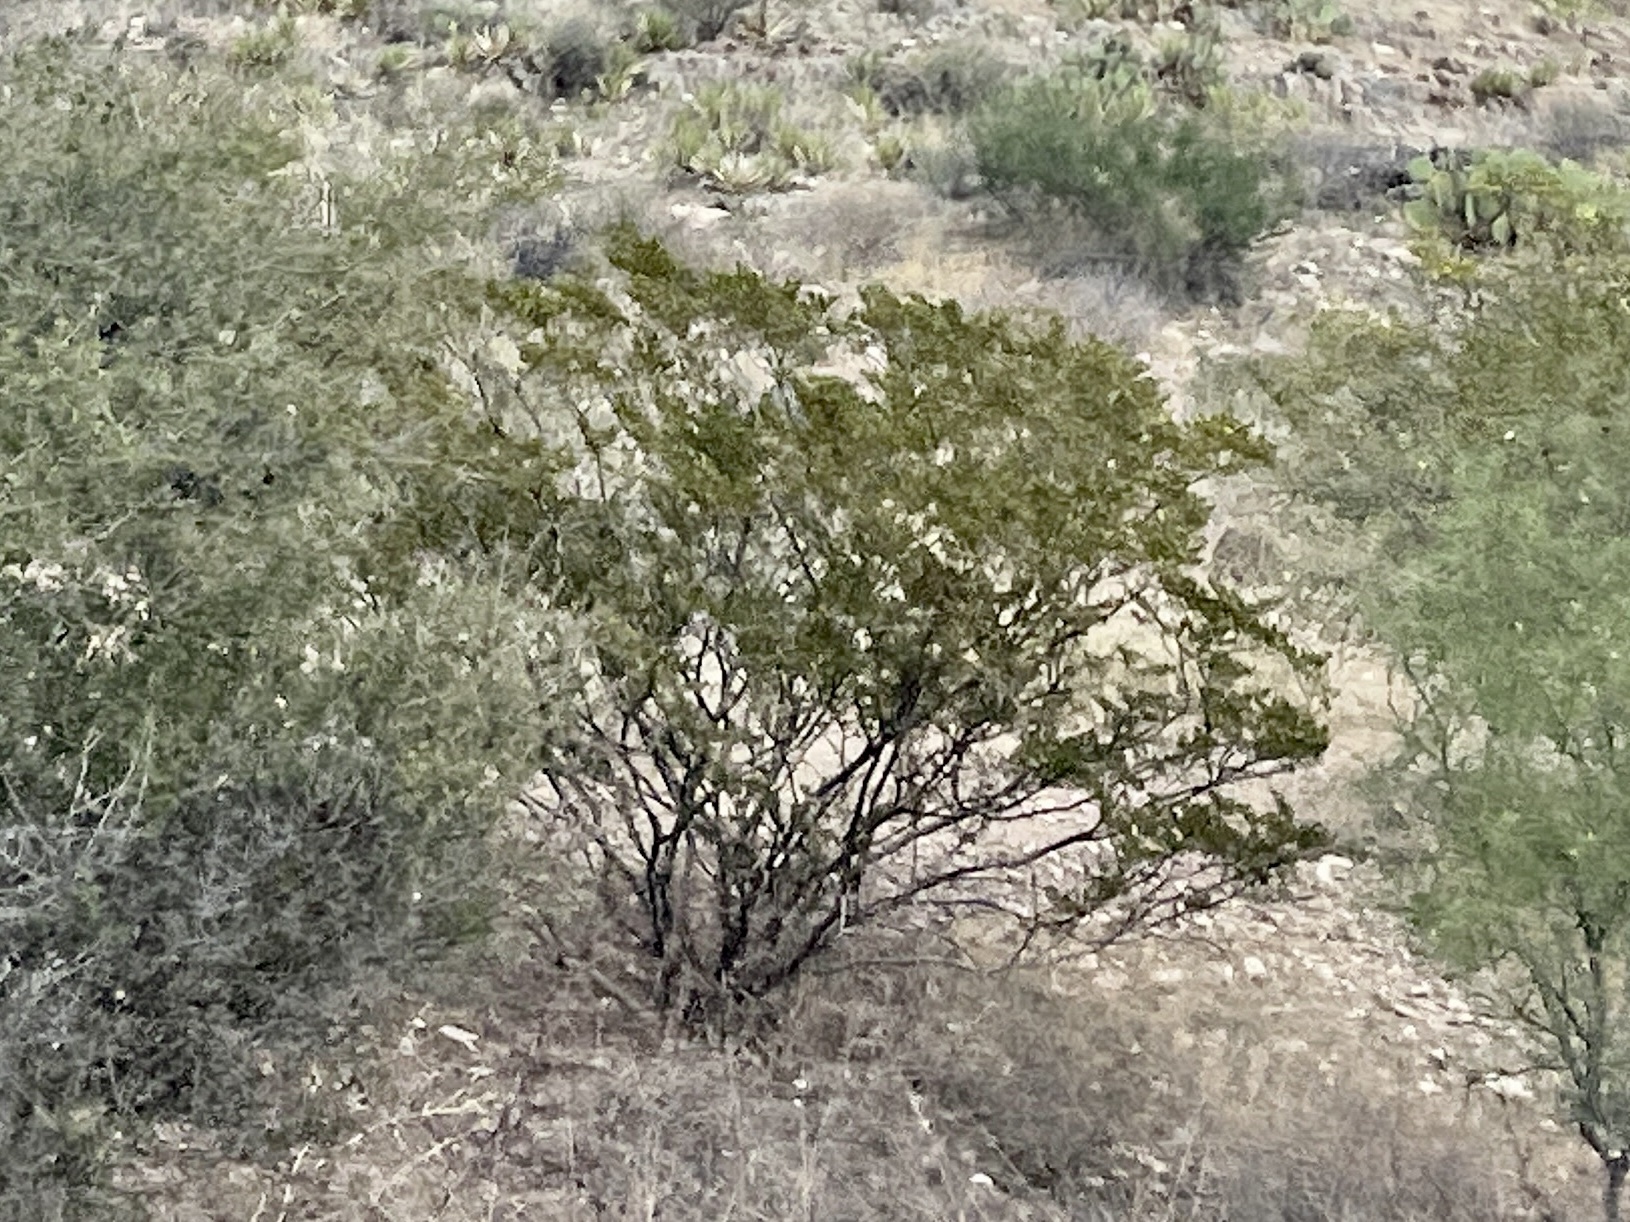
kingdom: Plantae
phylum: Tracheophyta
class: Magnoliopsida
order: Zygophyllales
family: Zygophyllaceae
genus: Larrea
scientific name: Larrea tridentata
